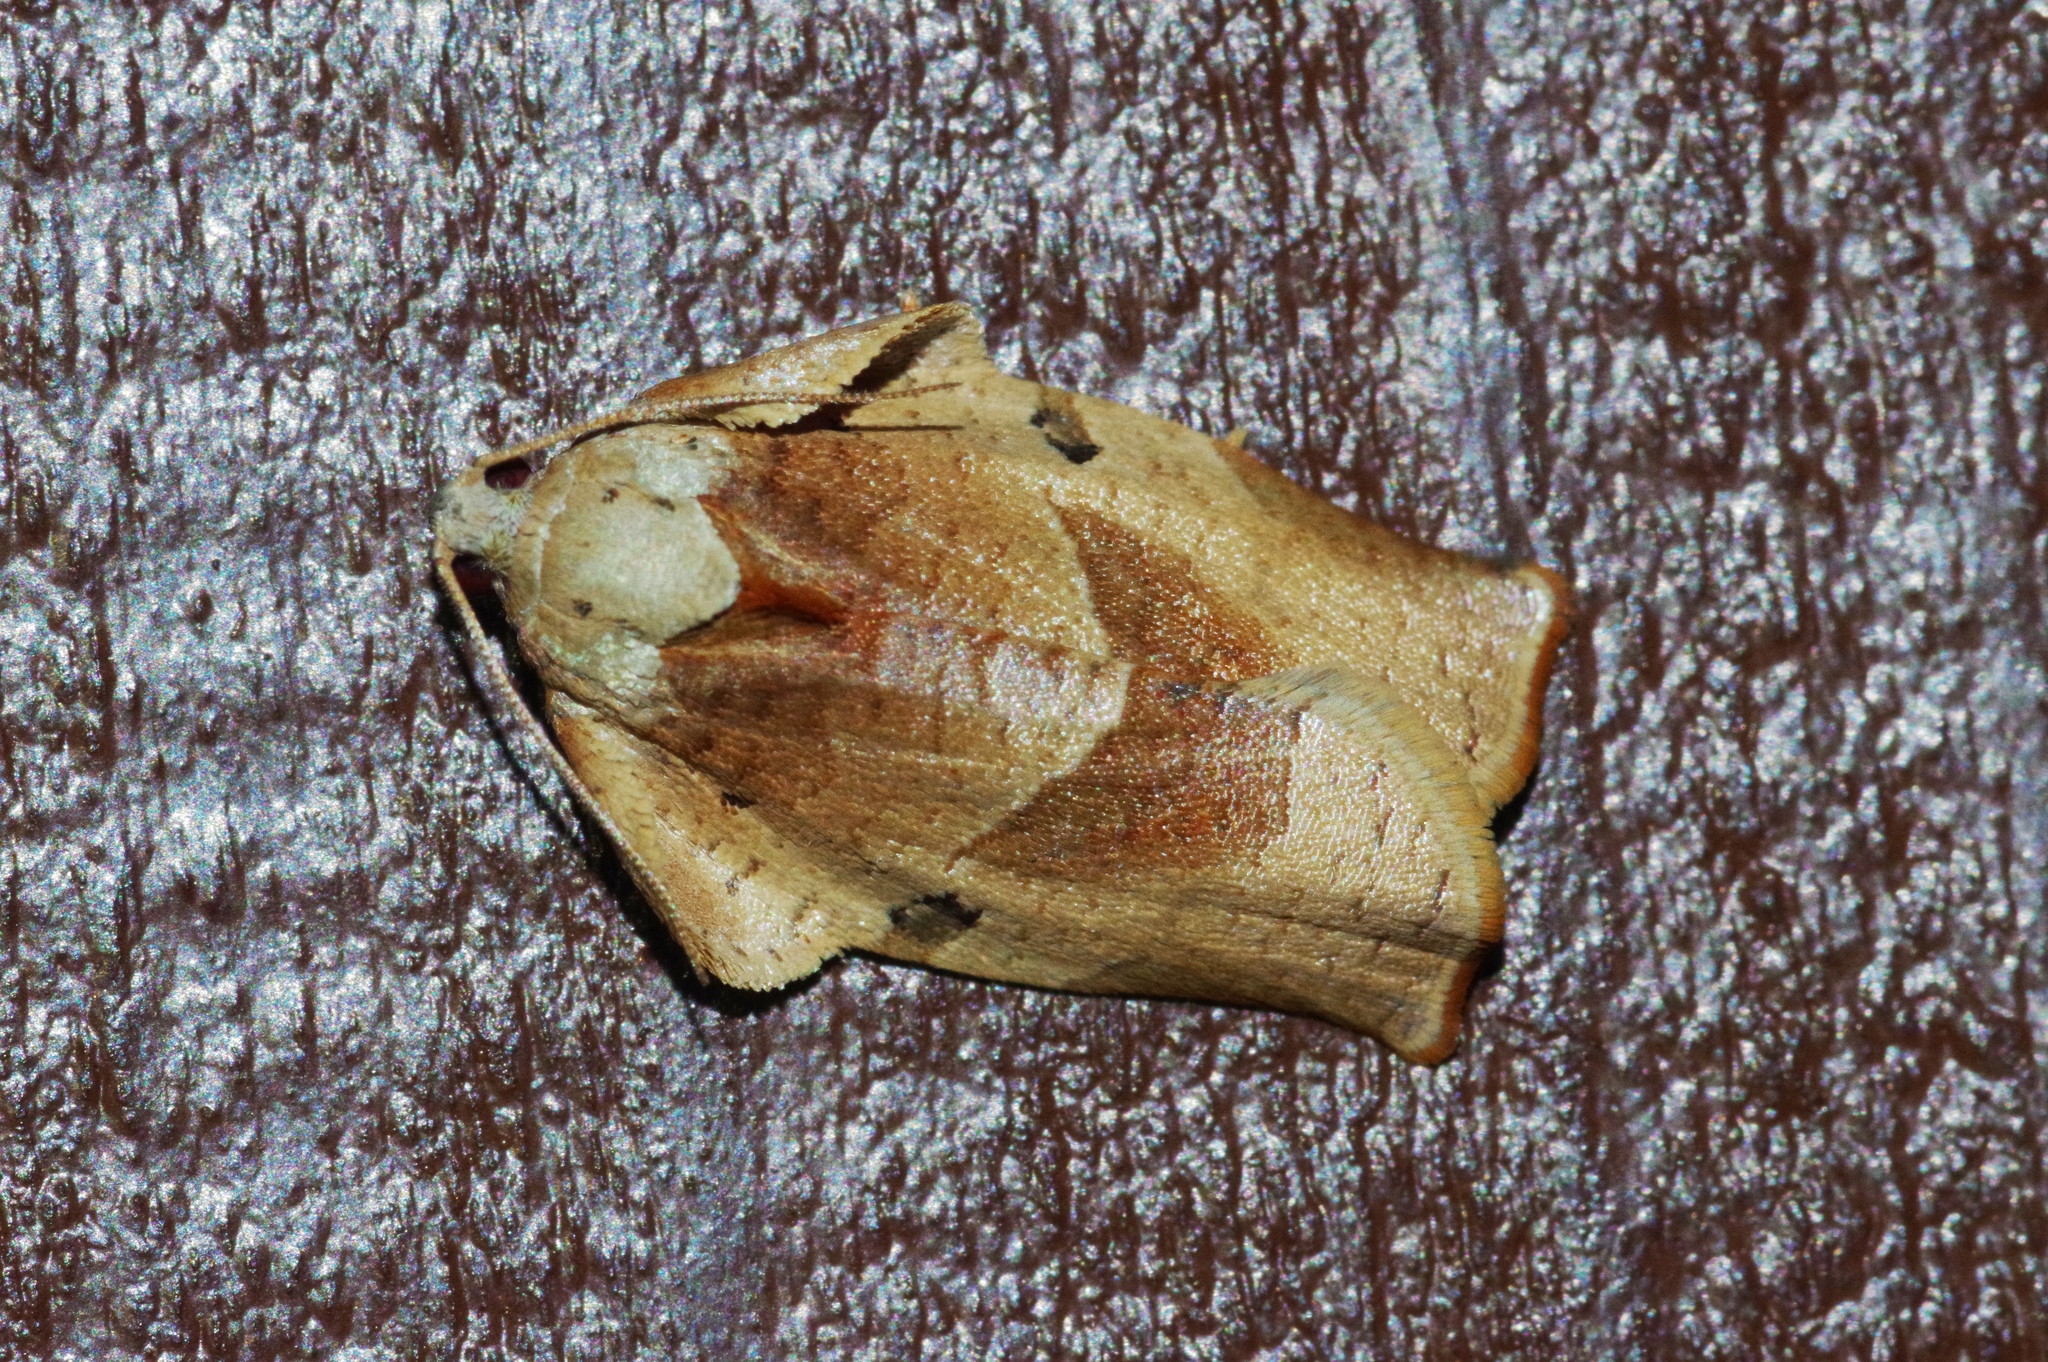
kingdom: Animalia
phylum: Arthropoda
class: Insecta
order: Lepidoptera
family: Tortricidae
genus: Homona
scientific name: Homona magnanima
